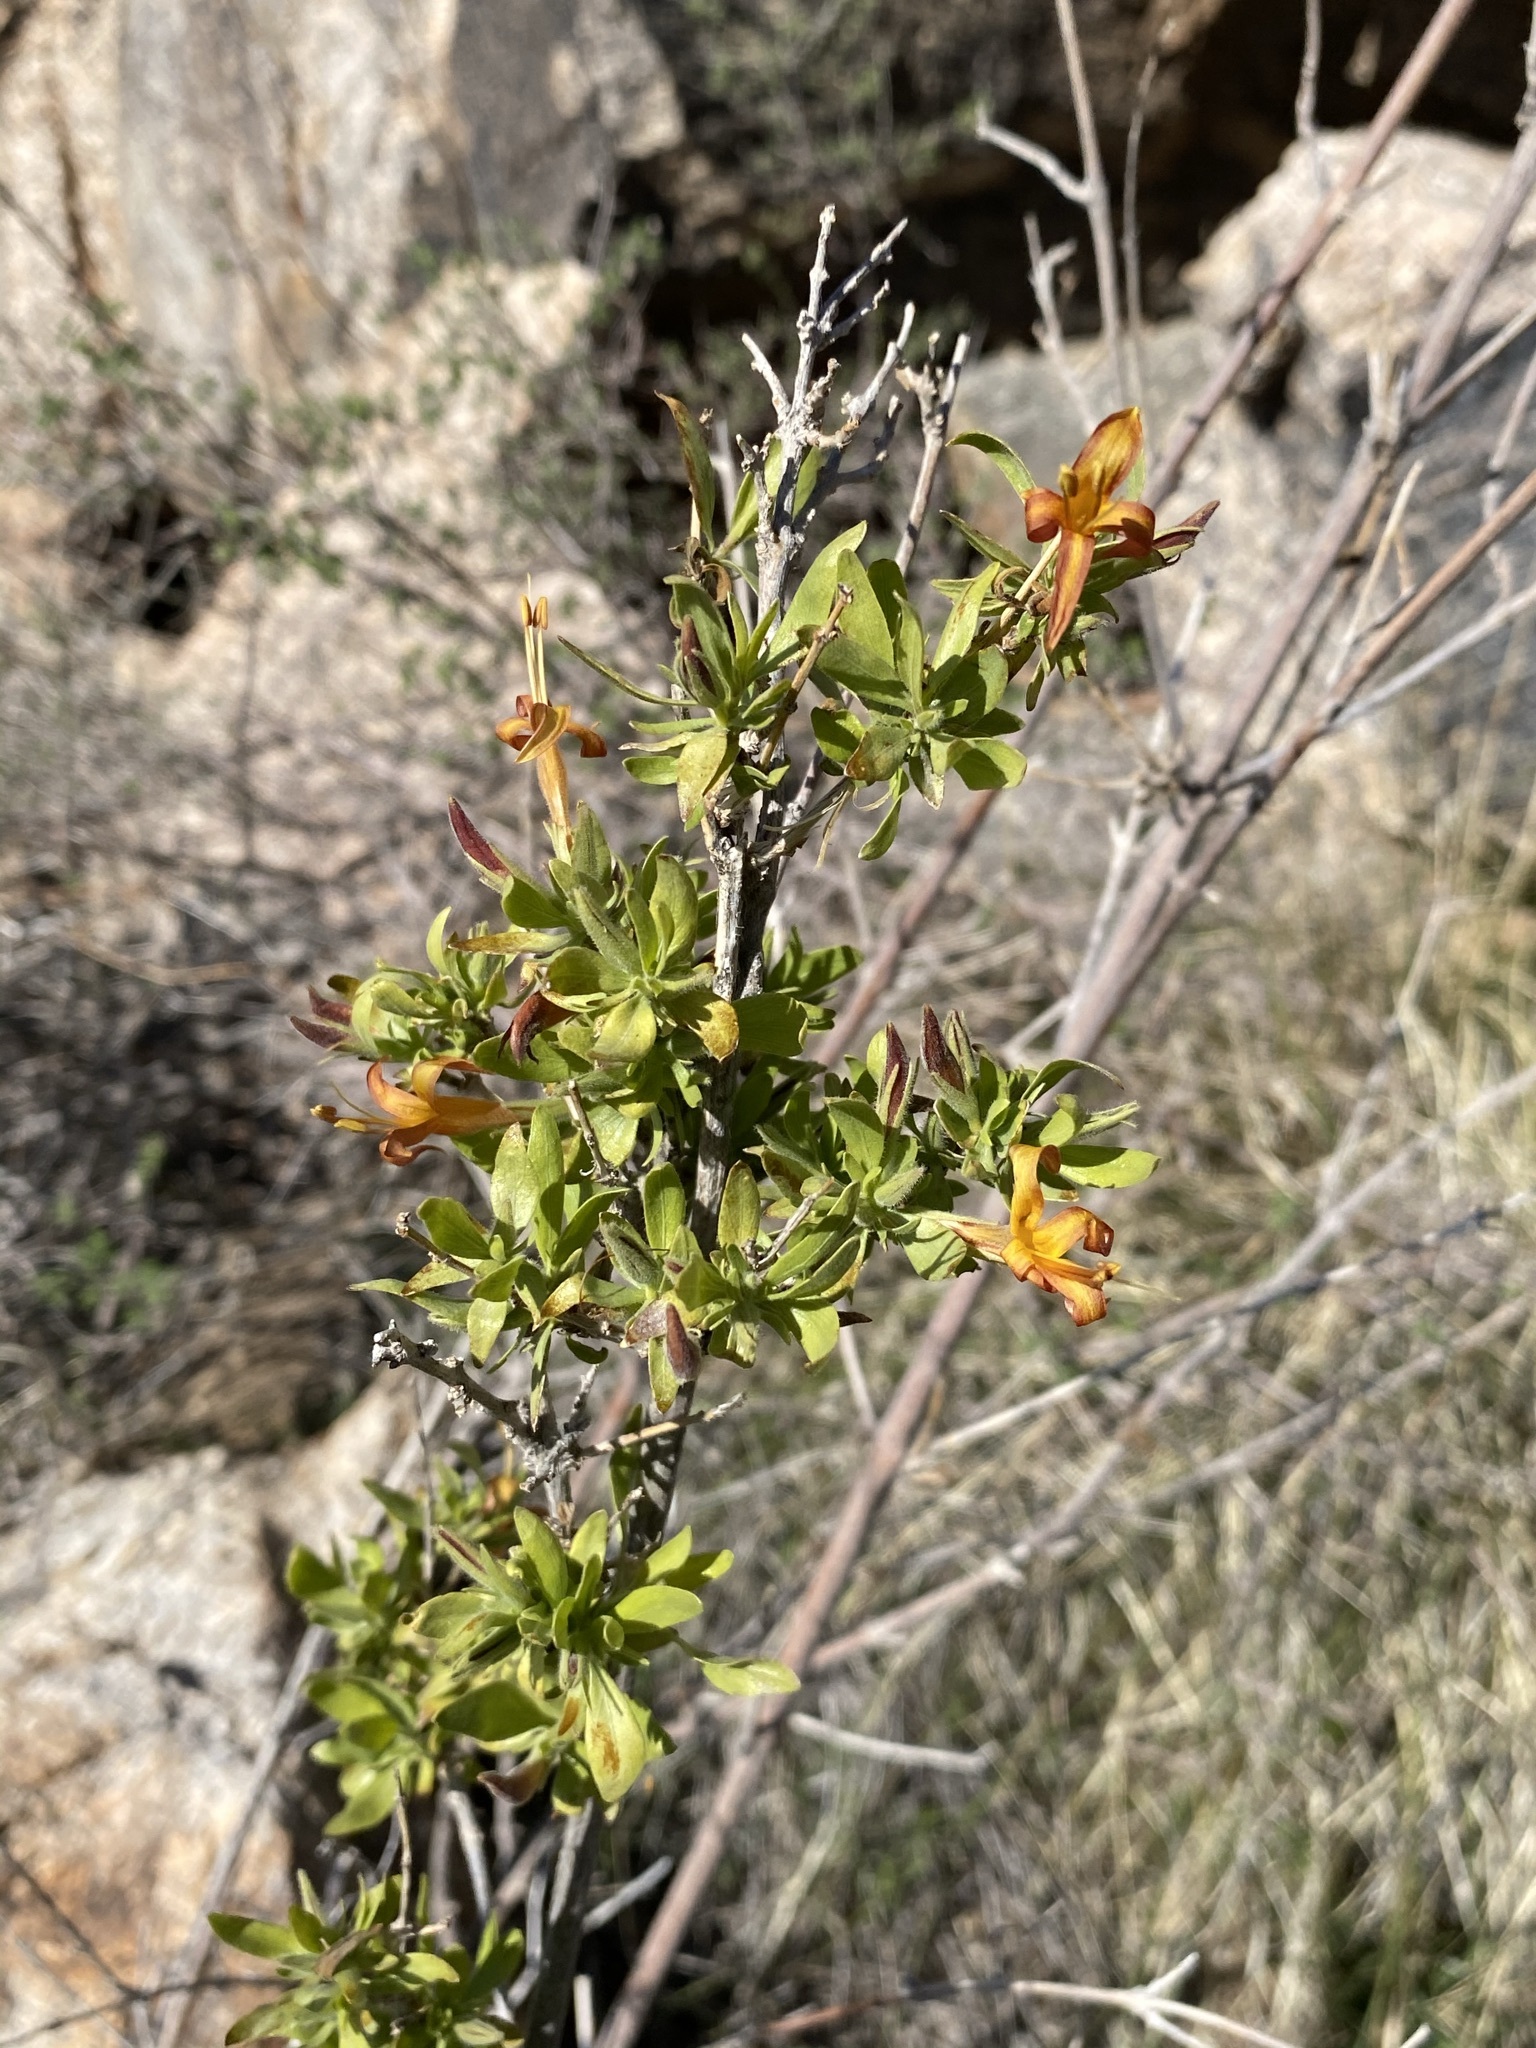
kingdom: Plantae
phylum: Tracheophyta
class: Magnoliopsida
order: Lamiales
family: Acanthaceae
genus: Anisacanthus
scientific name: Anisacanthus thurberi
